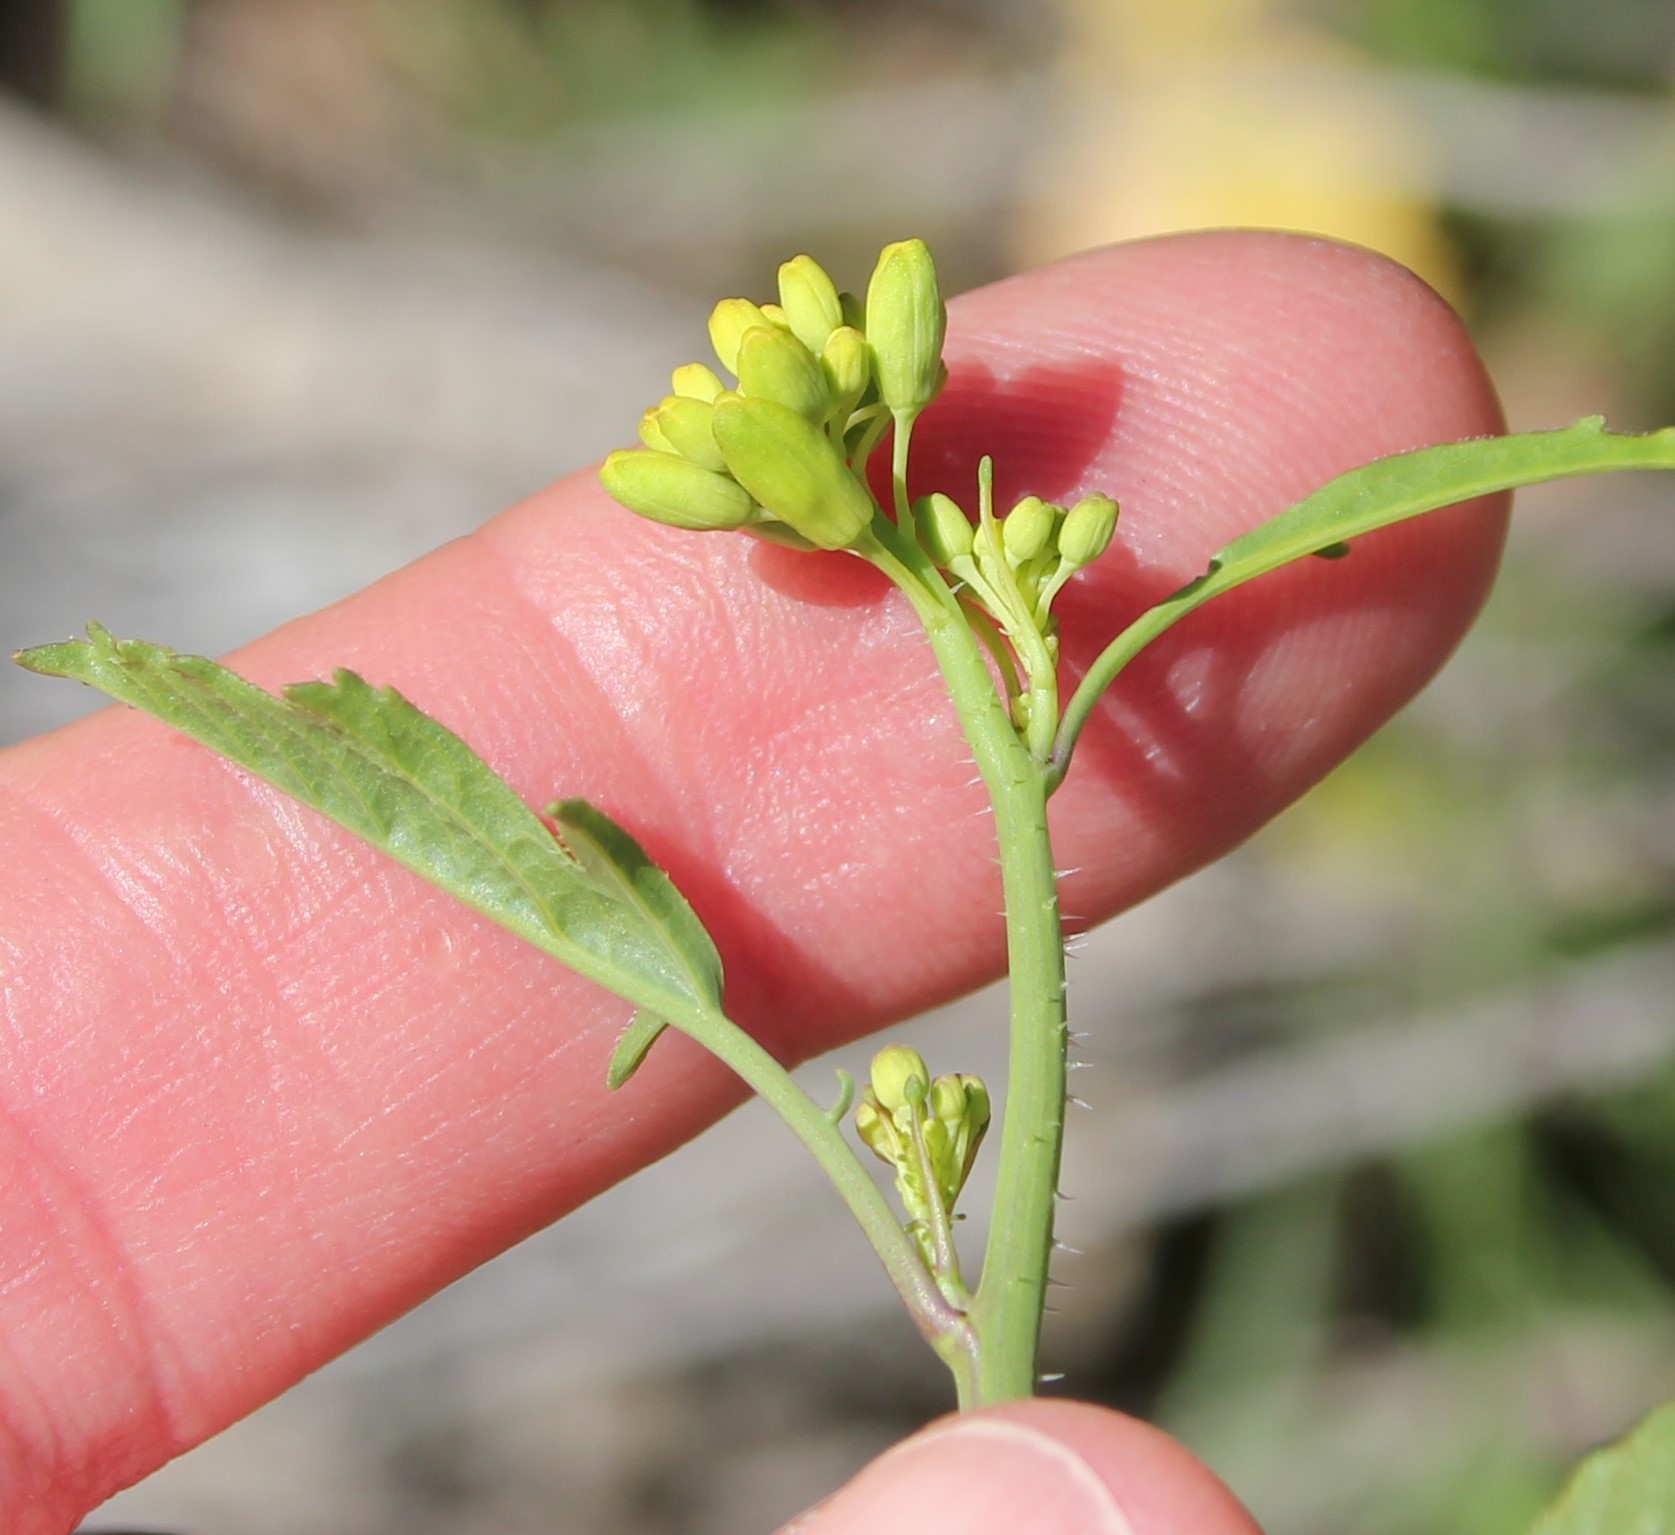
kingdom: Plantae
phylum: Tracheophyta
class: Magnoliopsida
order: Brassicales
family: Brassicaceae
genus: Brassica
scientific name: Brassica nigra
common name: Black mustard
